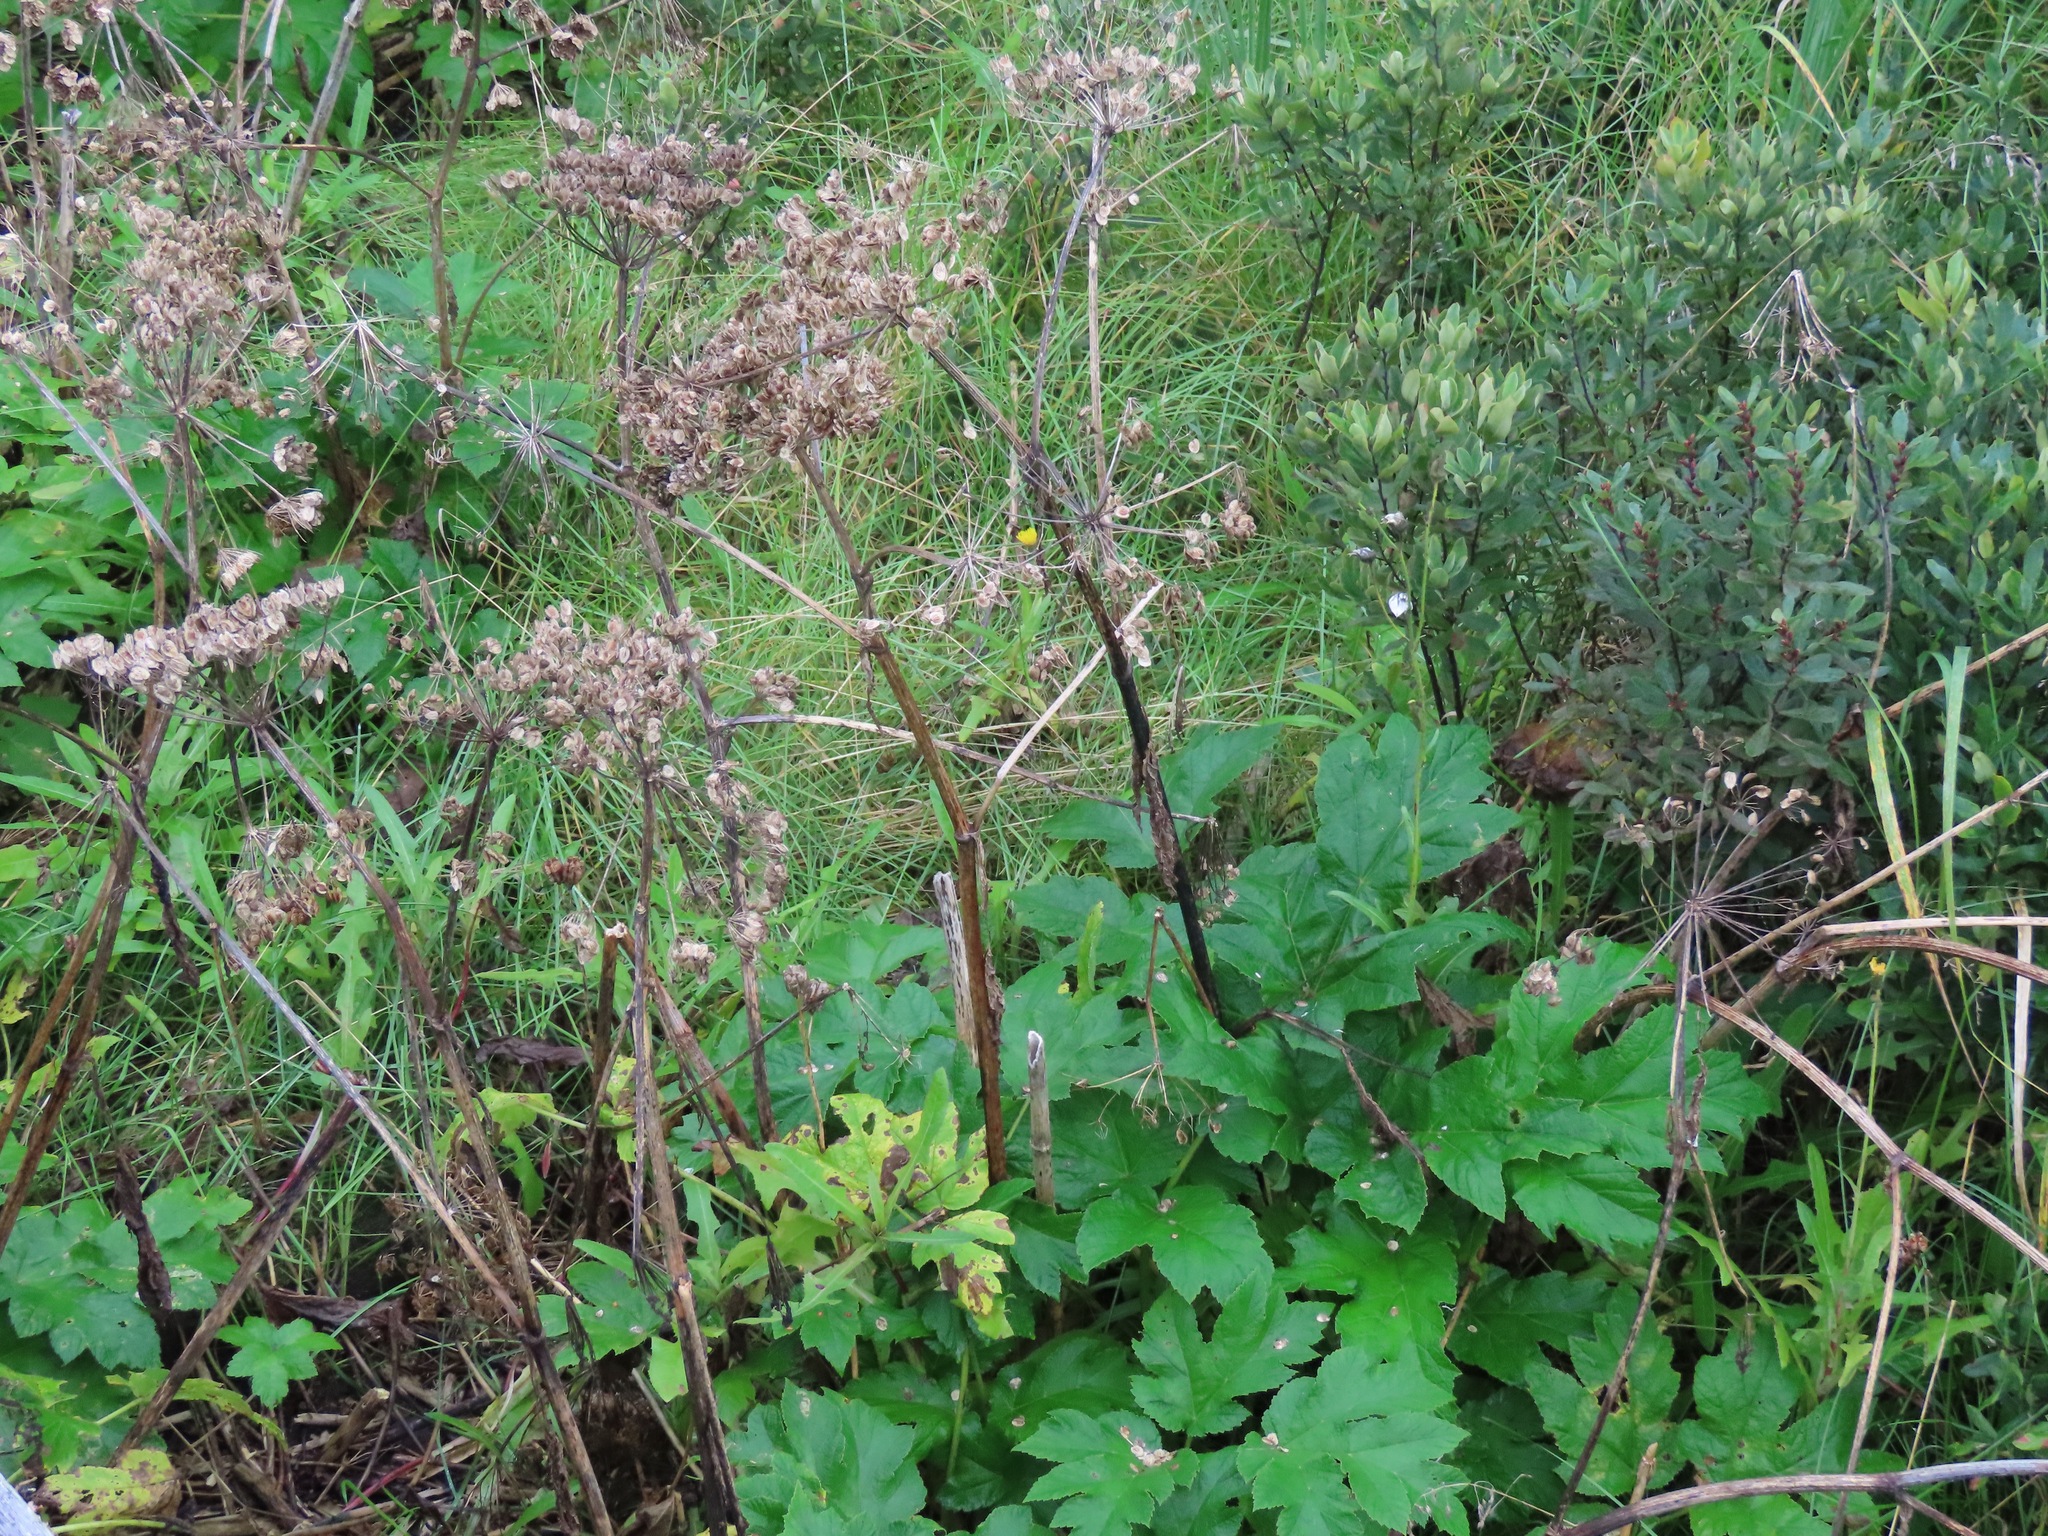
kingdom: Plantae
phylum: Tracheophyta
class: Magnoliopsida
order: Apiales
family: Apiaceae
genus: Heracleum
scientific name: Heracleum maximum
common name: American cow parsnip
